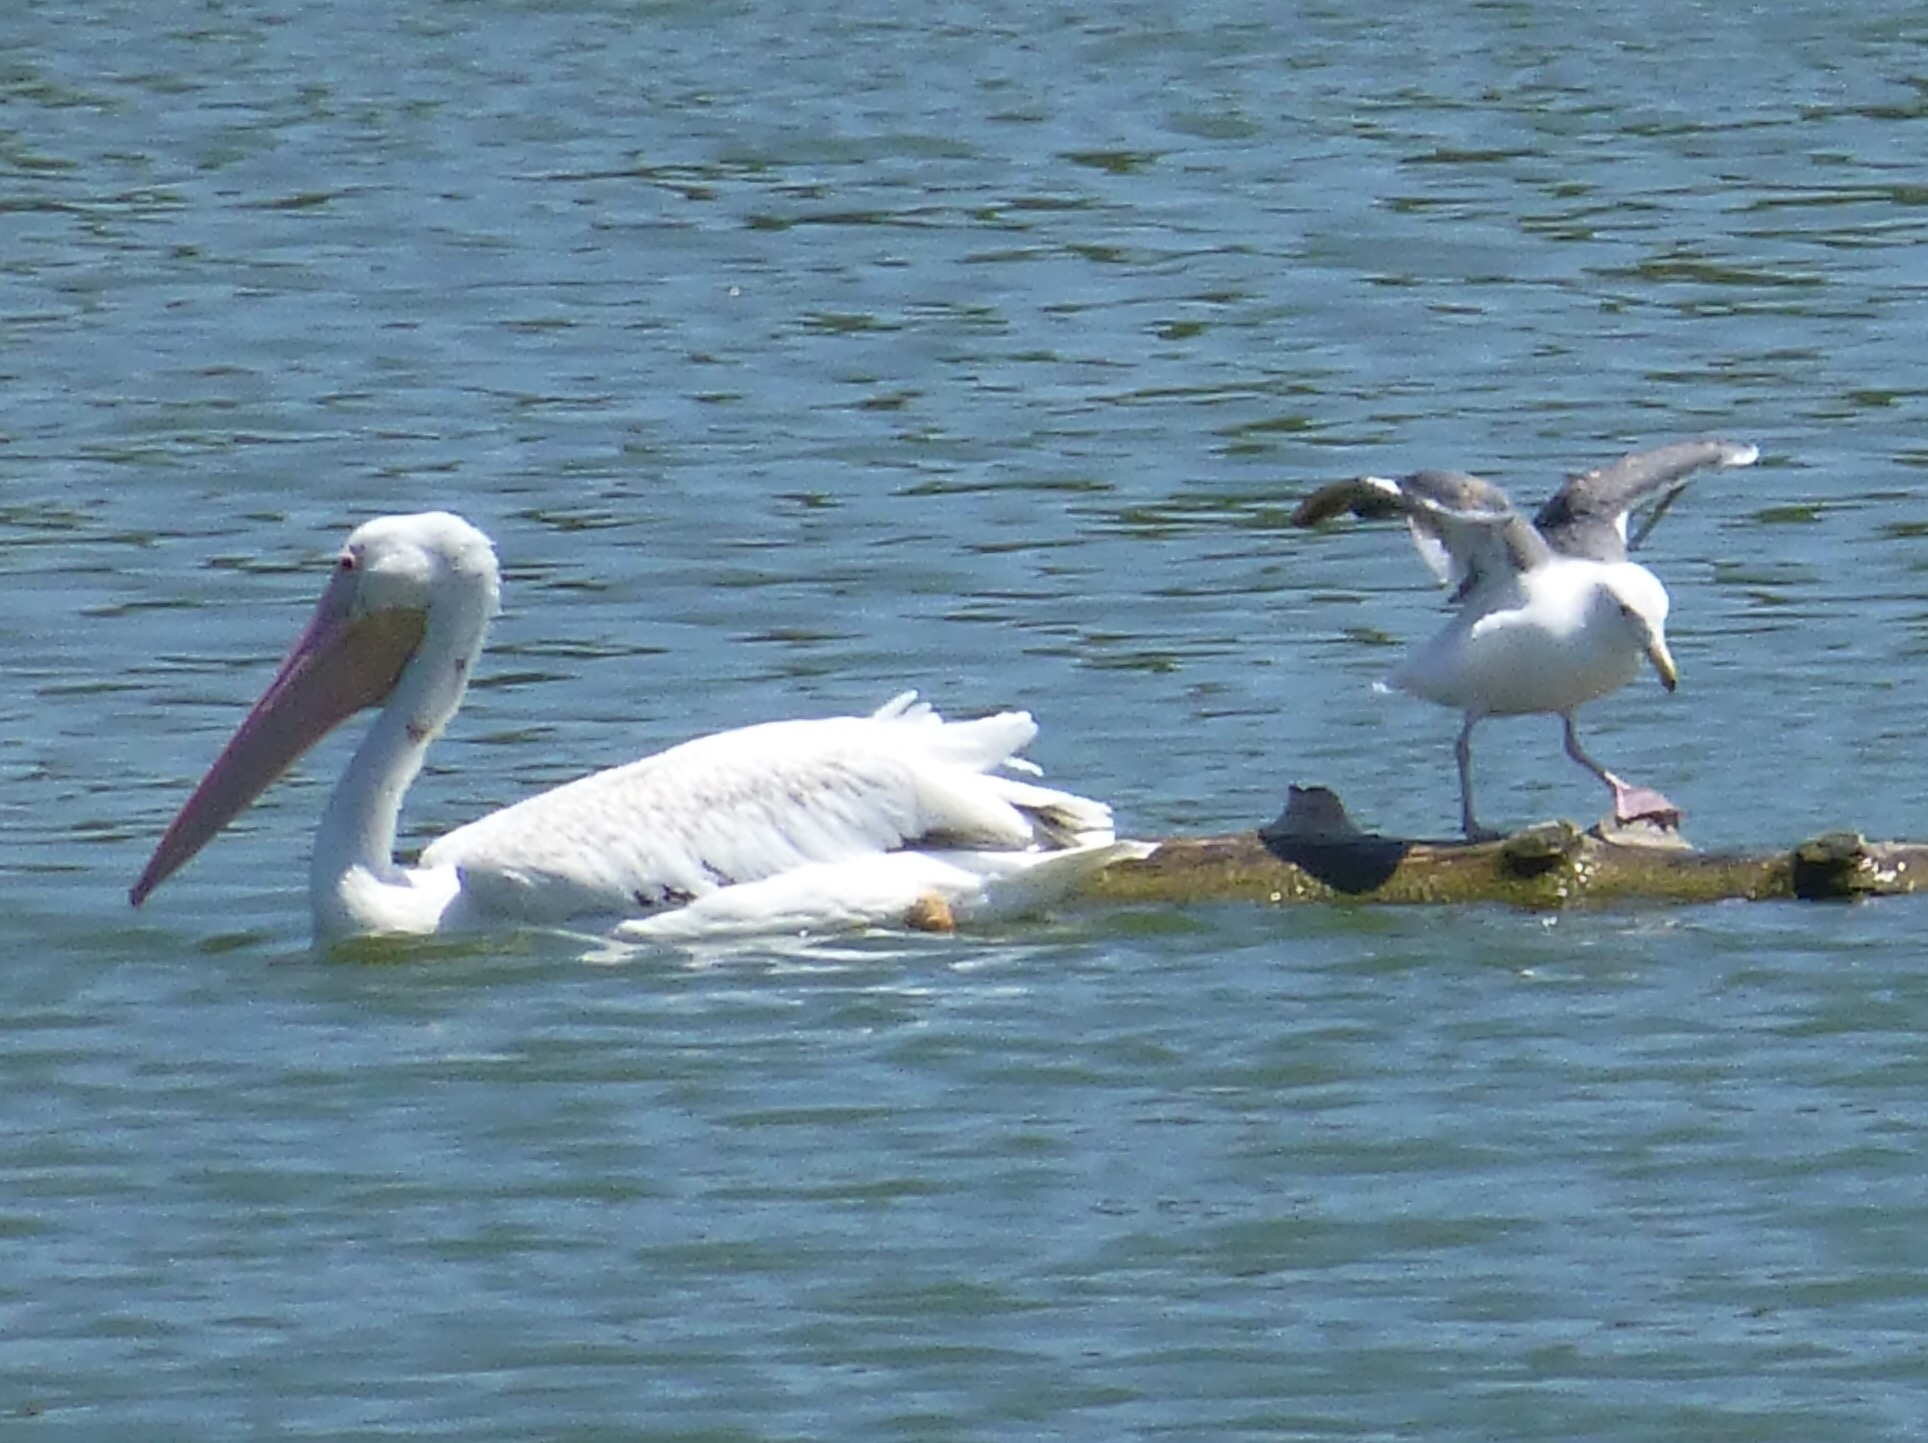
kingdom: Animalia
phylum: Chordata
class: Aves
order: Charadriiformes
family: Laridae
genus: Larus
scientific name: Larus occidentalis
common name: Western gull
